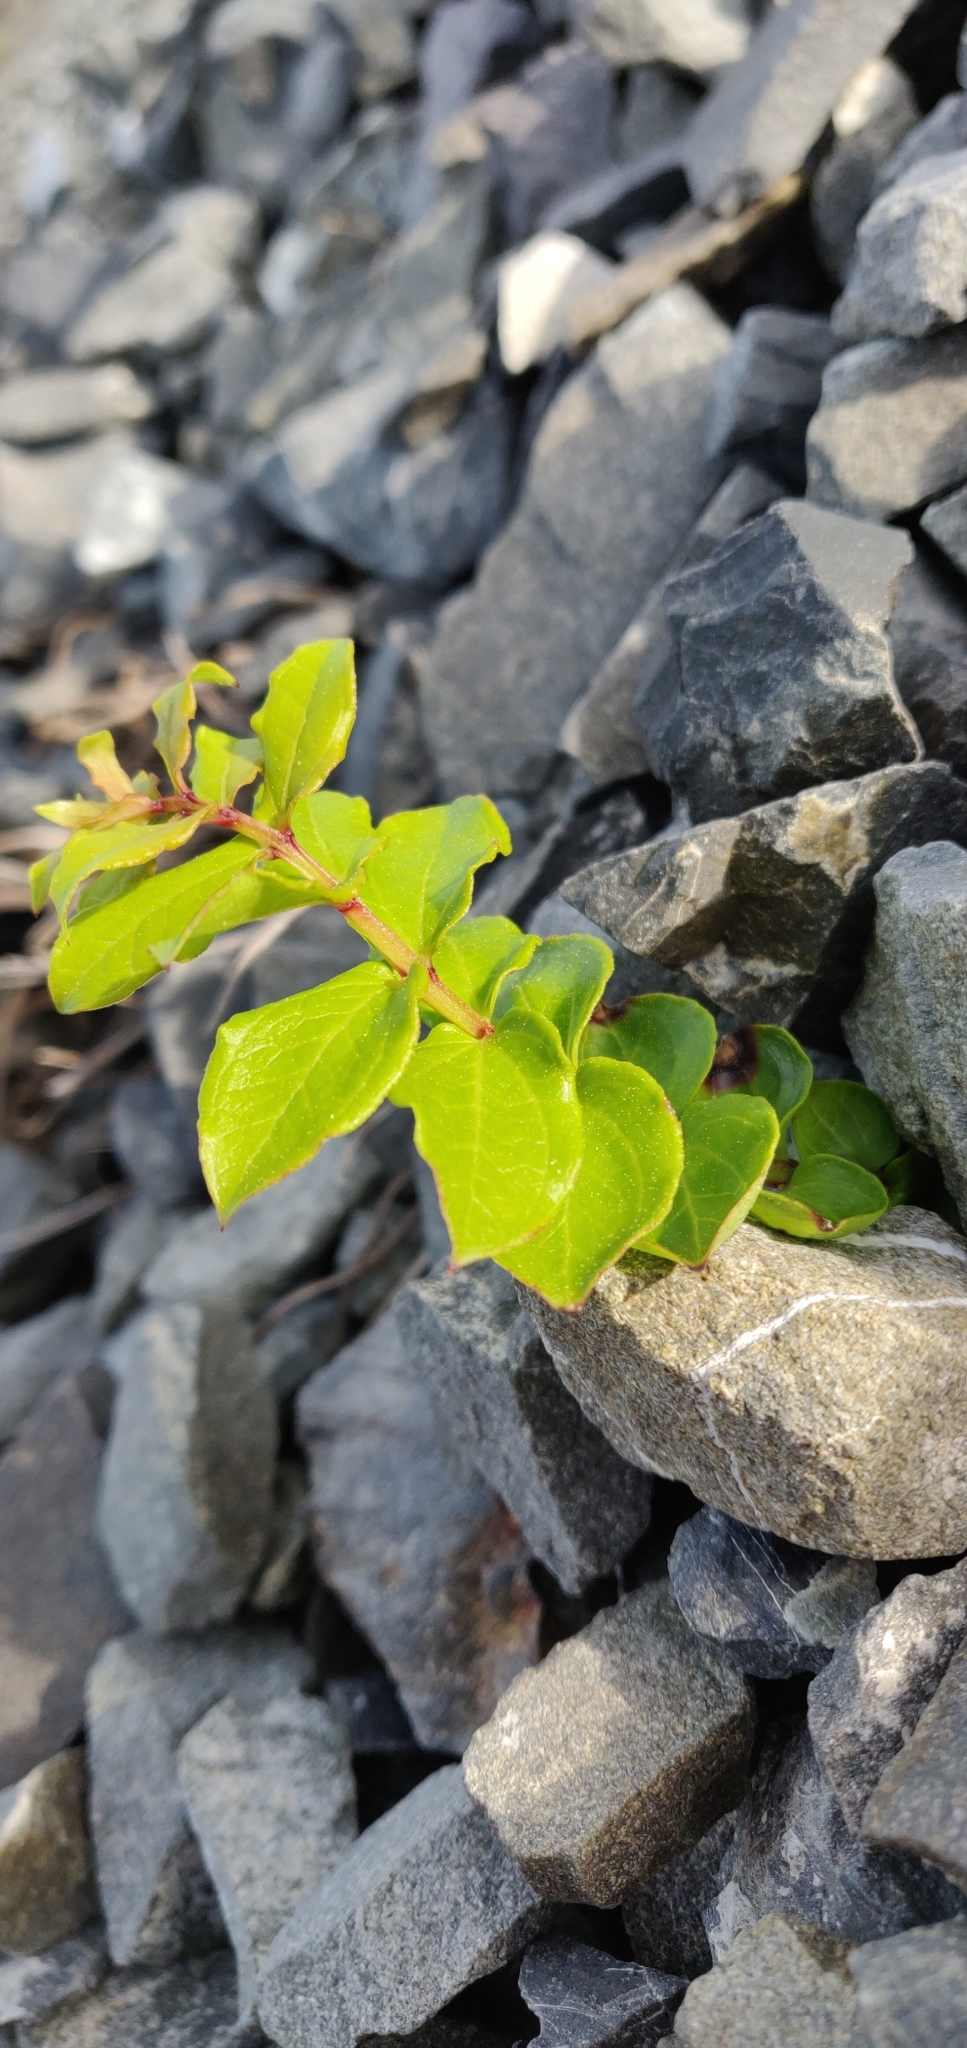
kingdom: Plantae
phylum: Tracheophyta
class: Magnoliopsida
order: Cucurbitales
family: Coriariaceae
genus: Coriaria
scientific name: Coriaria sarmentosa
